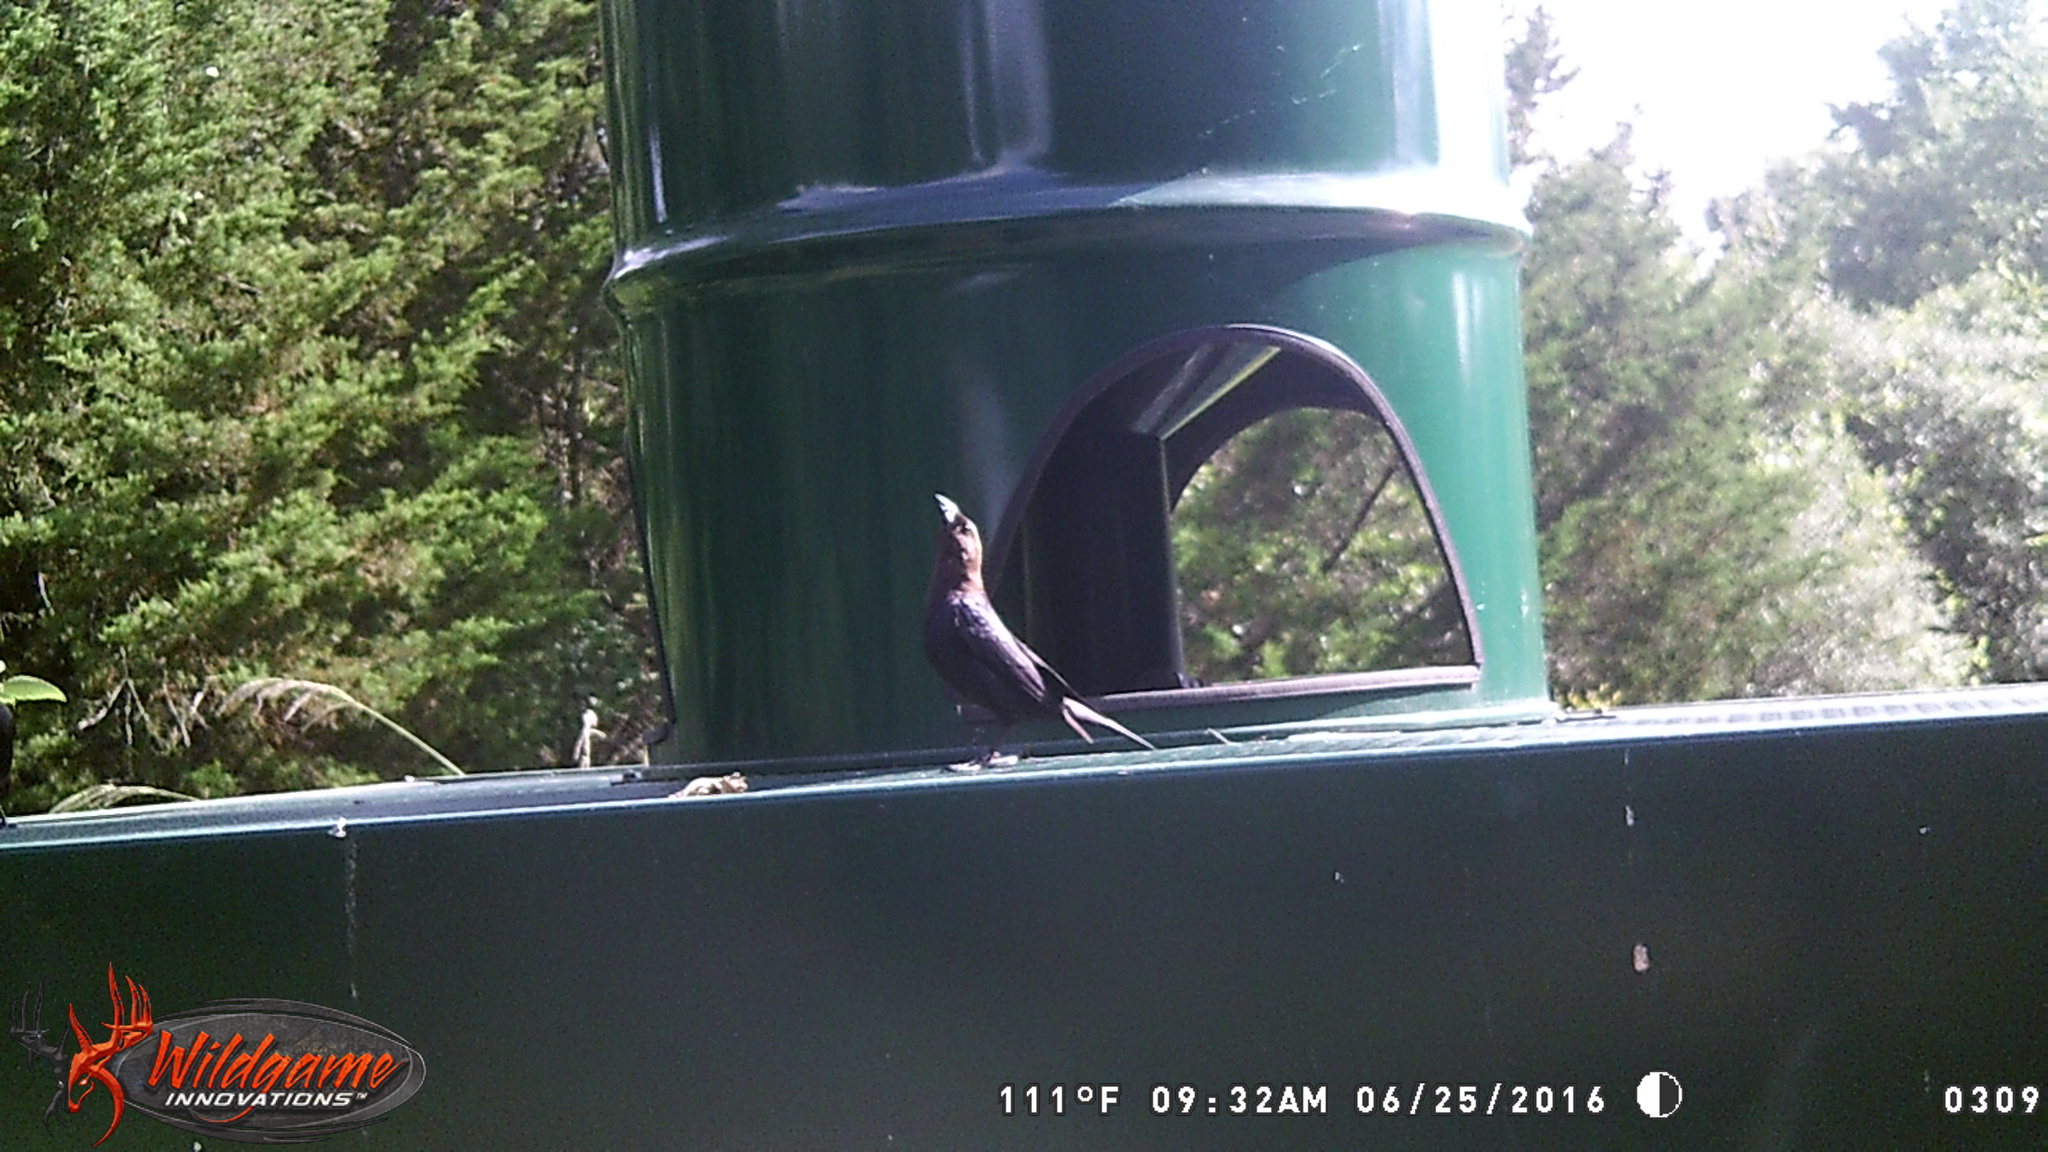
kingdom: Animalia
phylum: Chordata
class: Aves
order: Passeriformes
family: Icteridae
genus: Molothrus
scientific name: Molothrus ater
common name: Brown-headed cowbird
